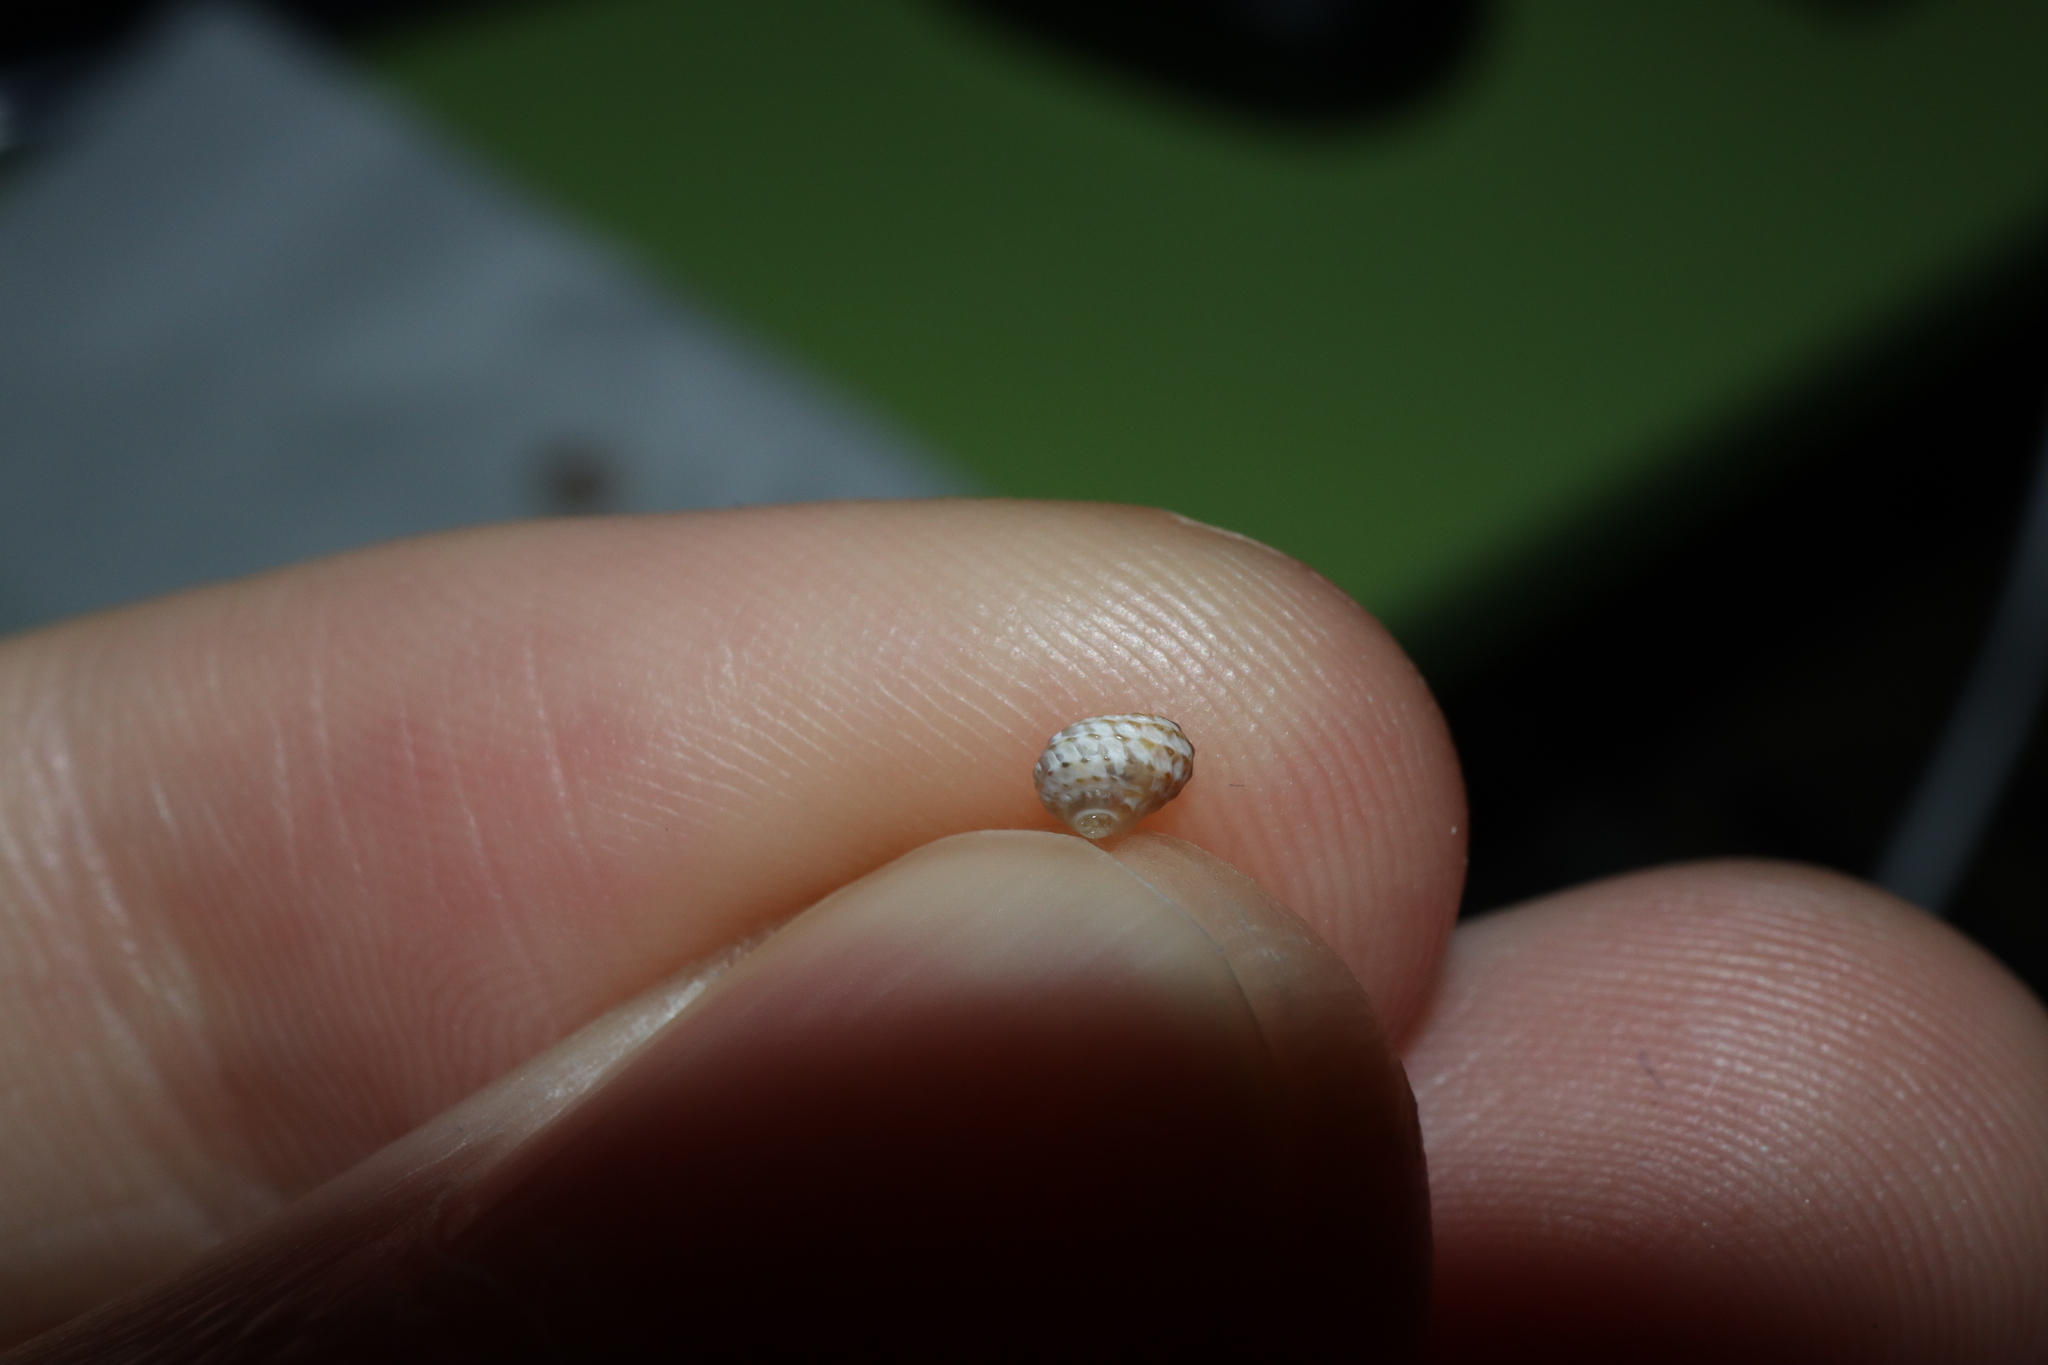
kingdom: Animalia
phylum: Mollusca
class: Gastropoda
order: Littorinimorpha
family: Tornidae
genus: Pseudoliotia
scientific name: Pseudoliotia micans
